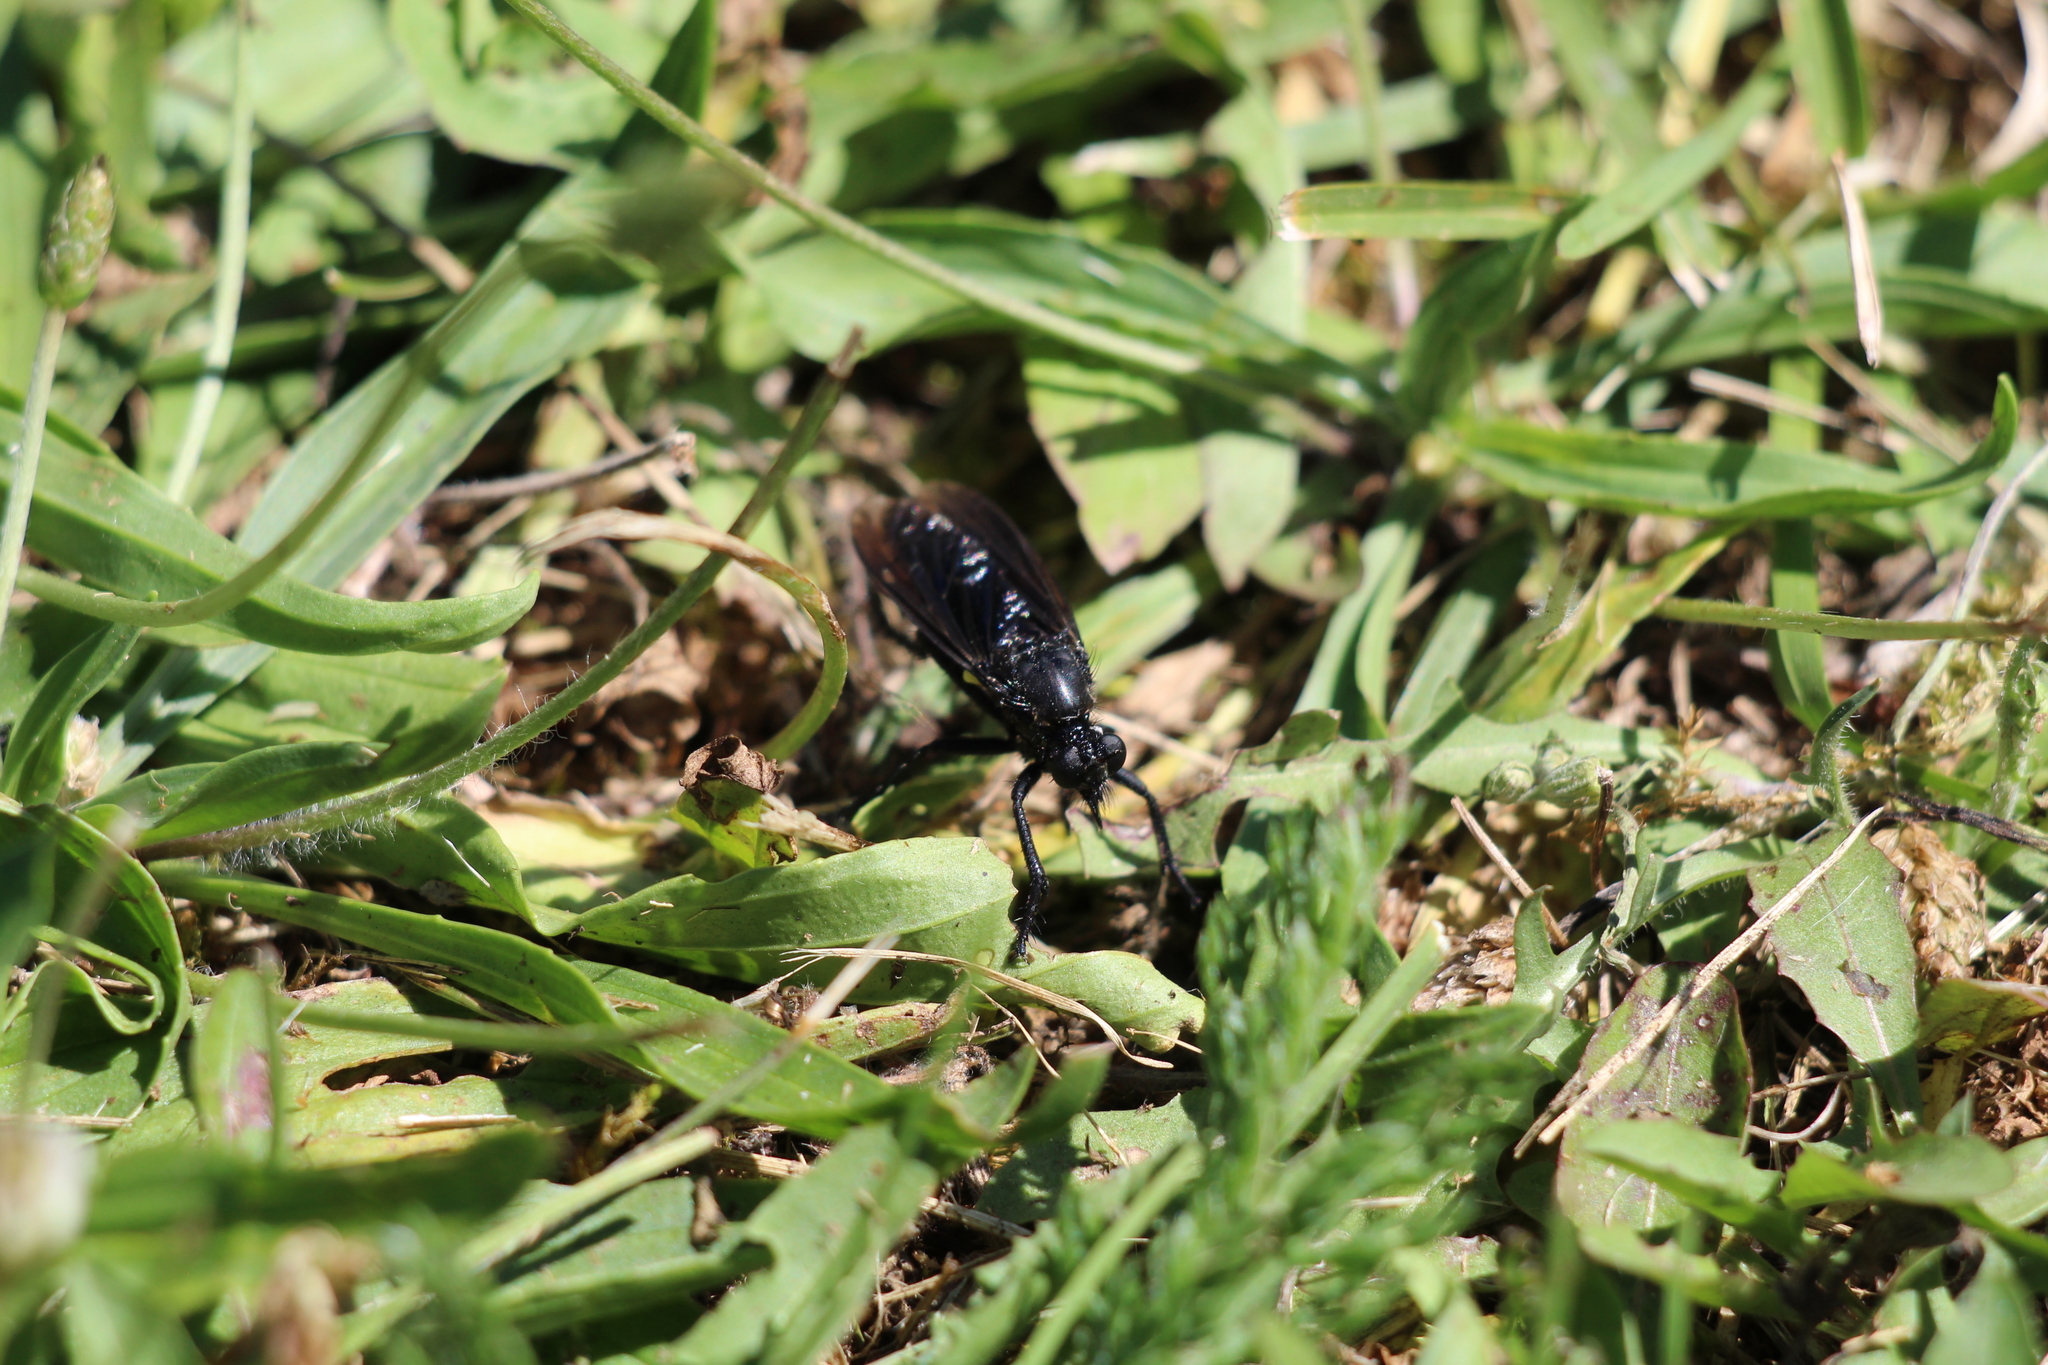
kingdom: Animalia
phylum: Arthropoda
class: Insecta
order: Diptera
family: Asilidae
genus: Dasypogon
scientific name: Dasypogon diadema
